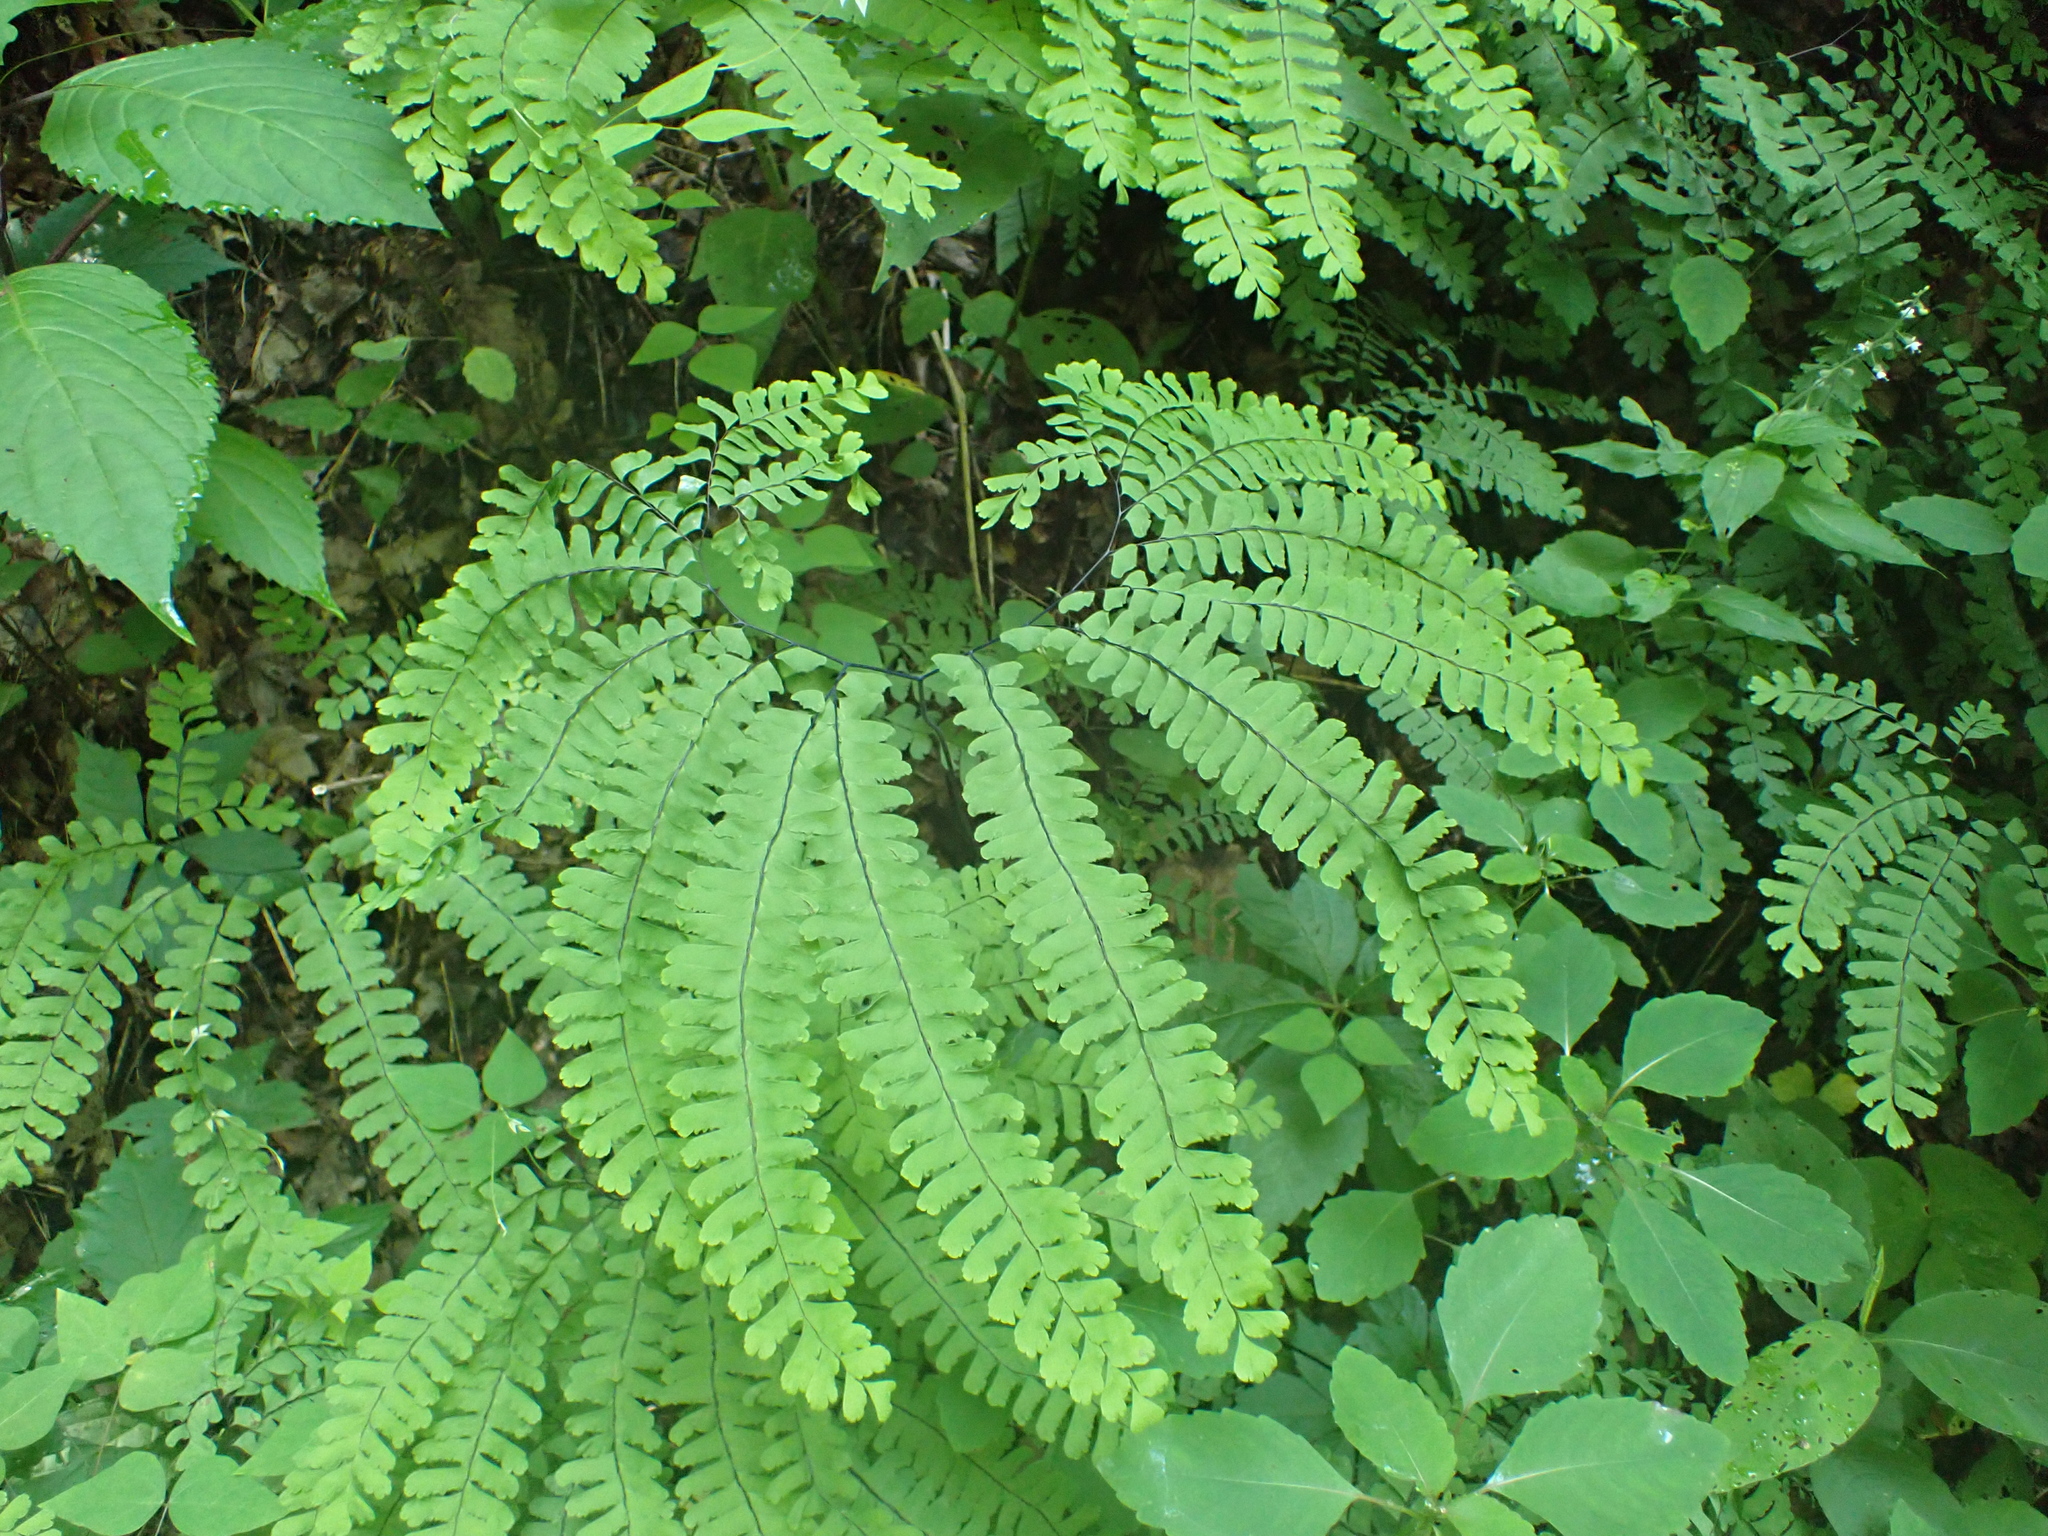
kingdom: Plantae
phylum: Tracheophyta
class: Polypodiopsida
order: Polypodiales
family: Pteridaceae
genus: Adiantum
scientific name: Adiantum pedatum
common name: Five-finger fern
